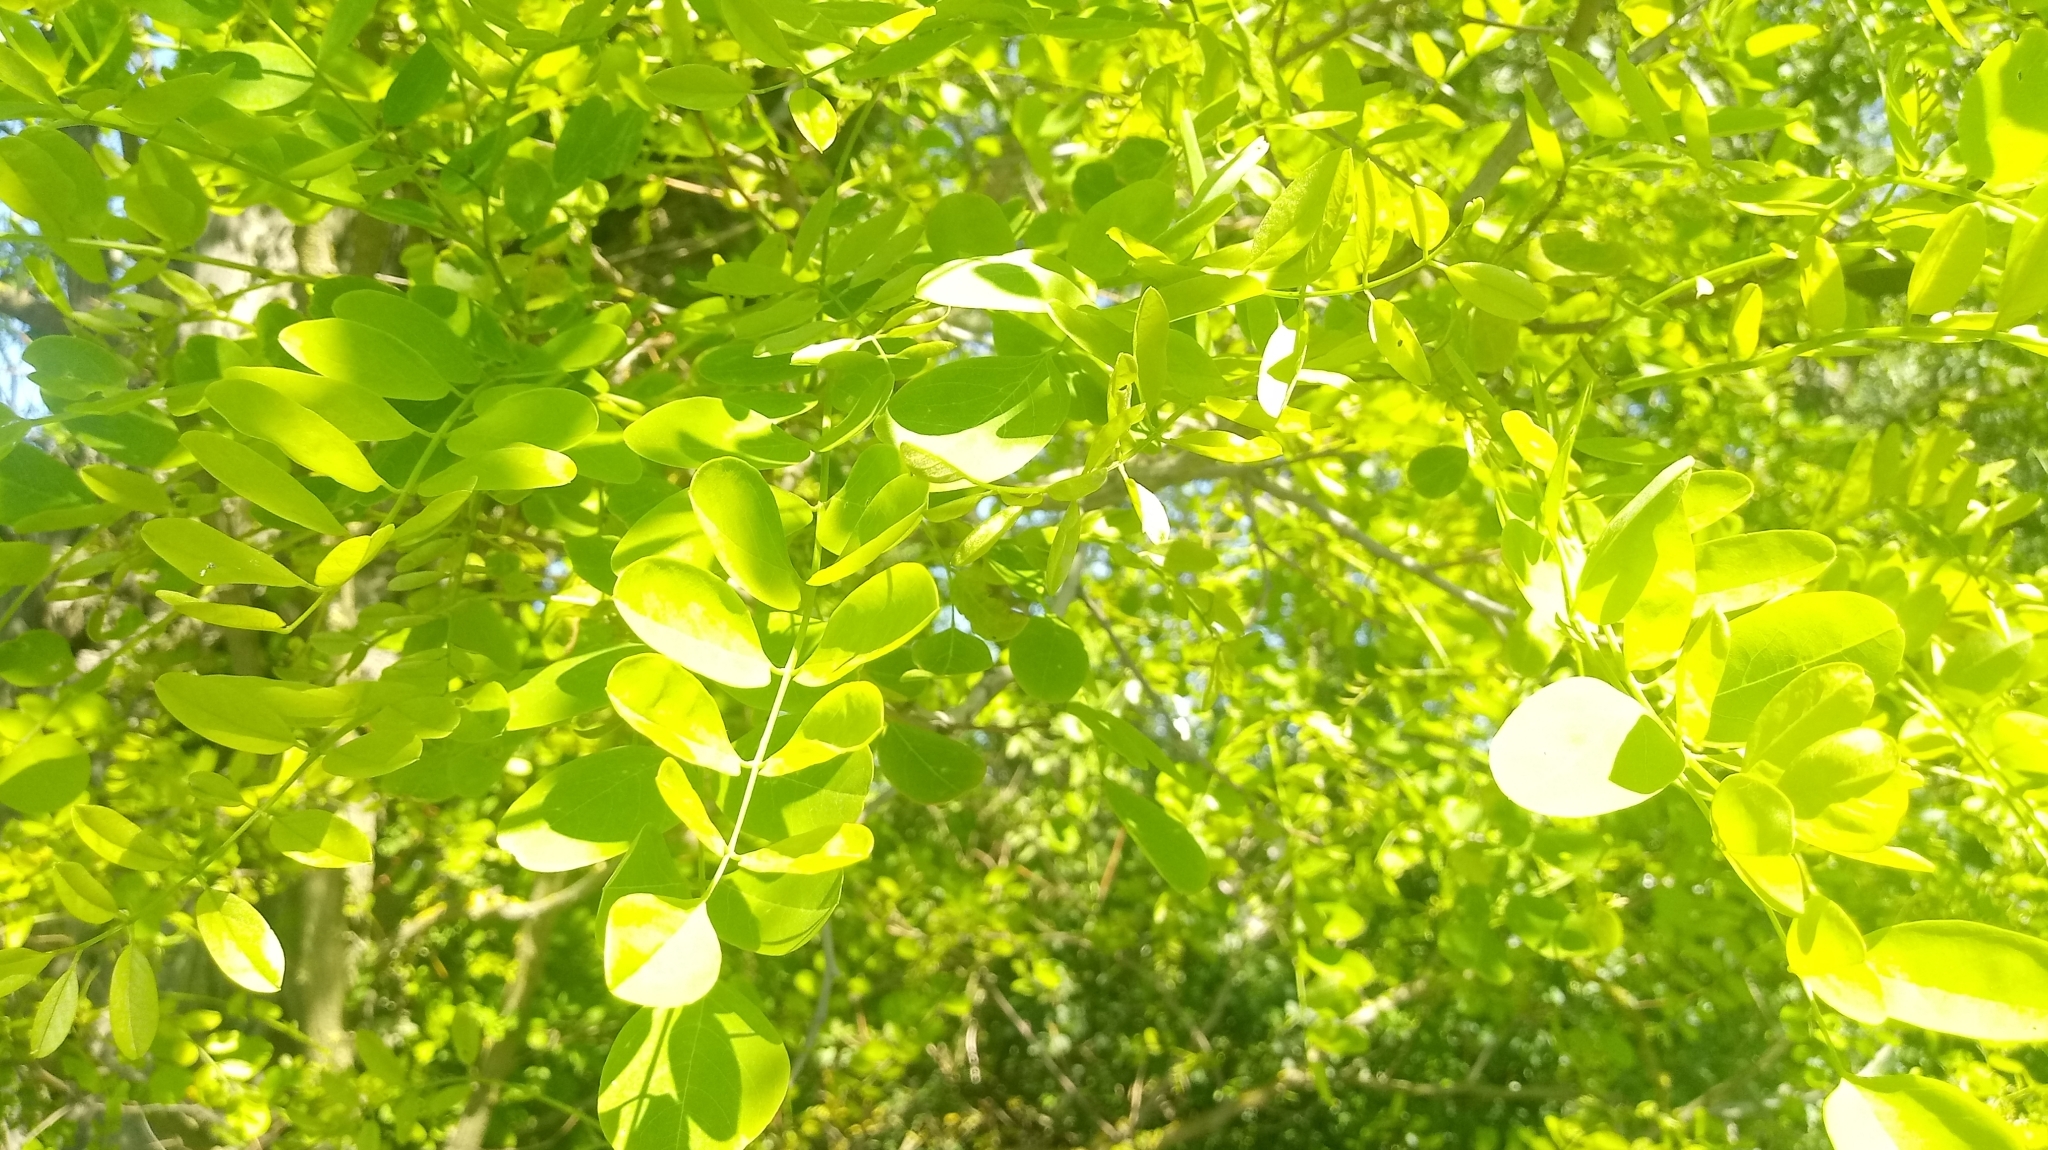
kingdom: Plantae
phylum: Tracheophyta
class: Magnoliopsida
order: Fabales
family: Fabaceae
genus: Robinia
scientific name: Robinia pseudoacacia
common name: Black locust
